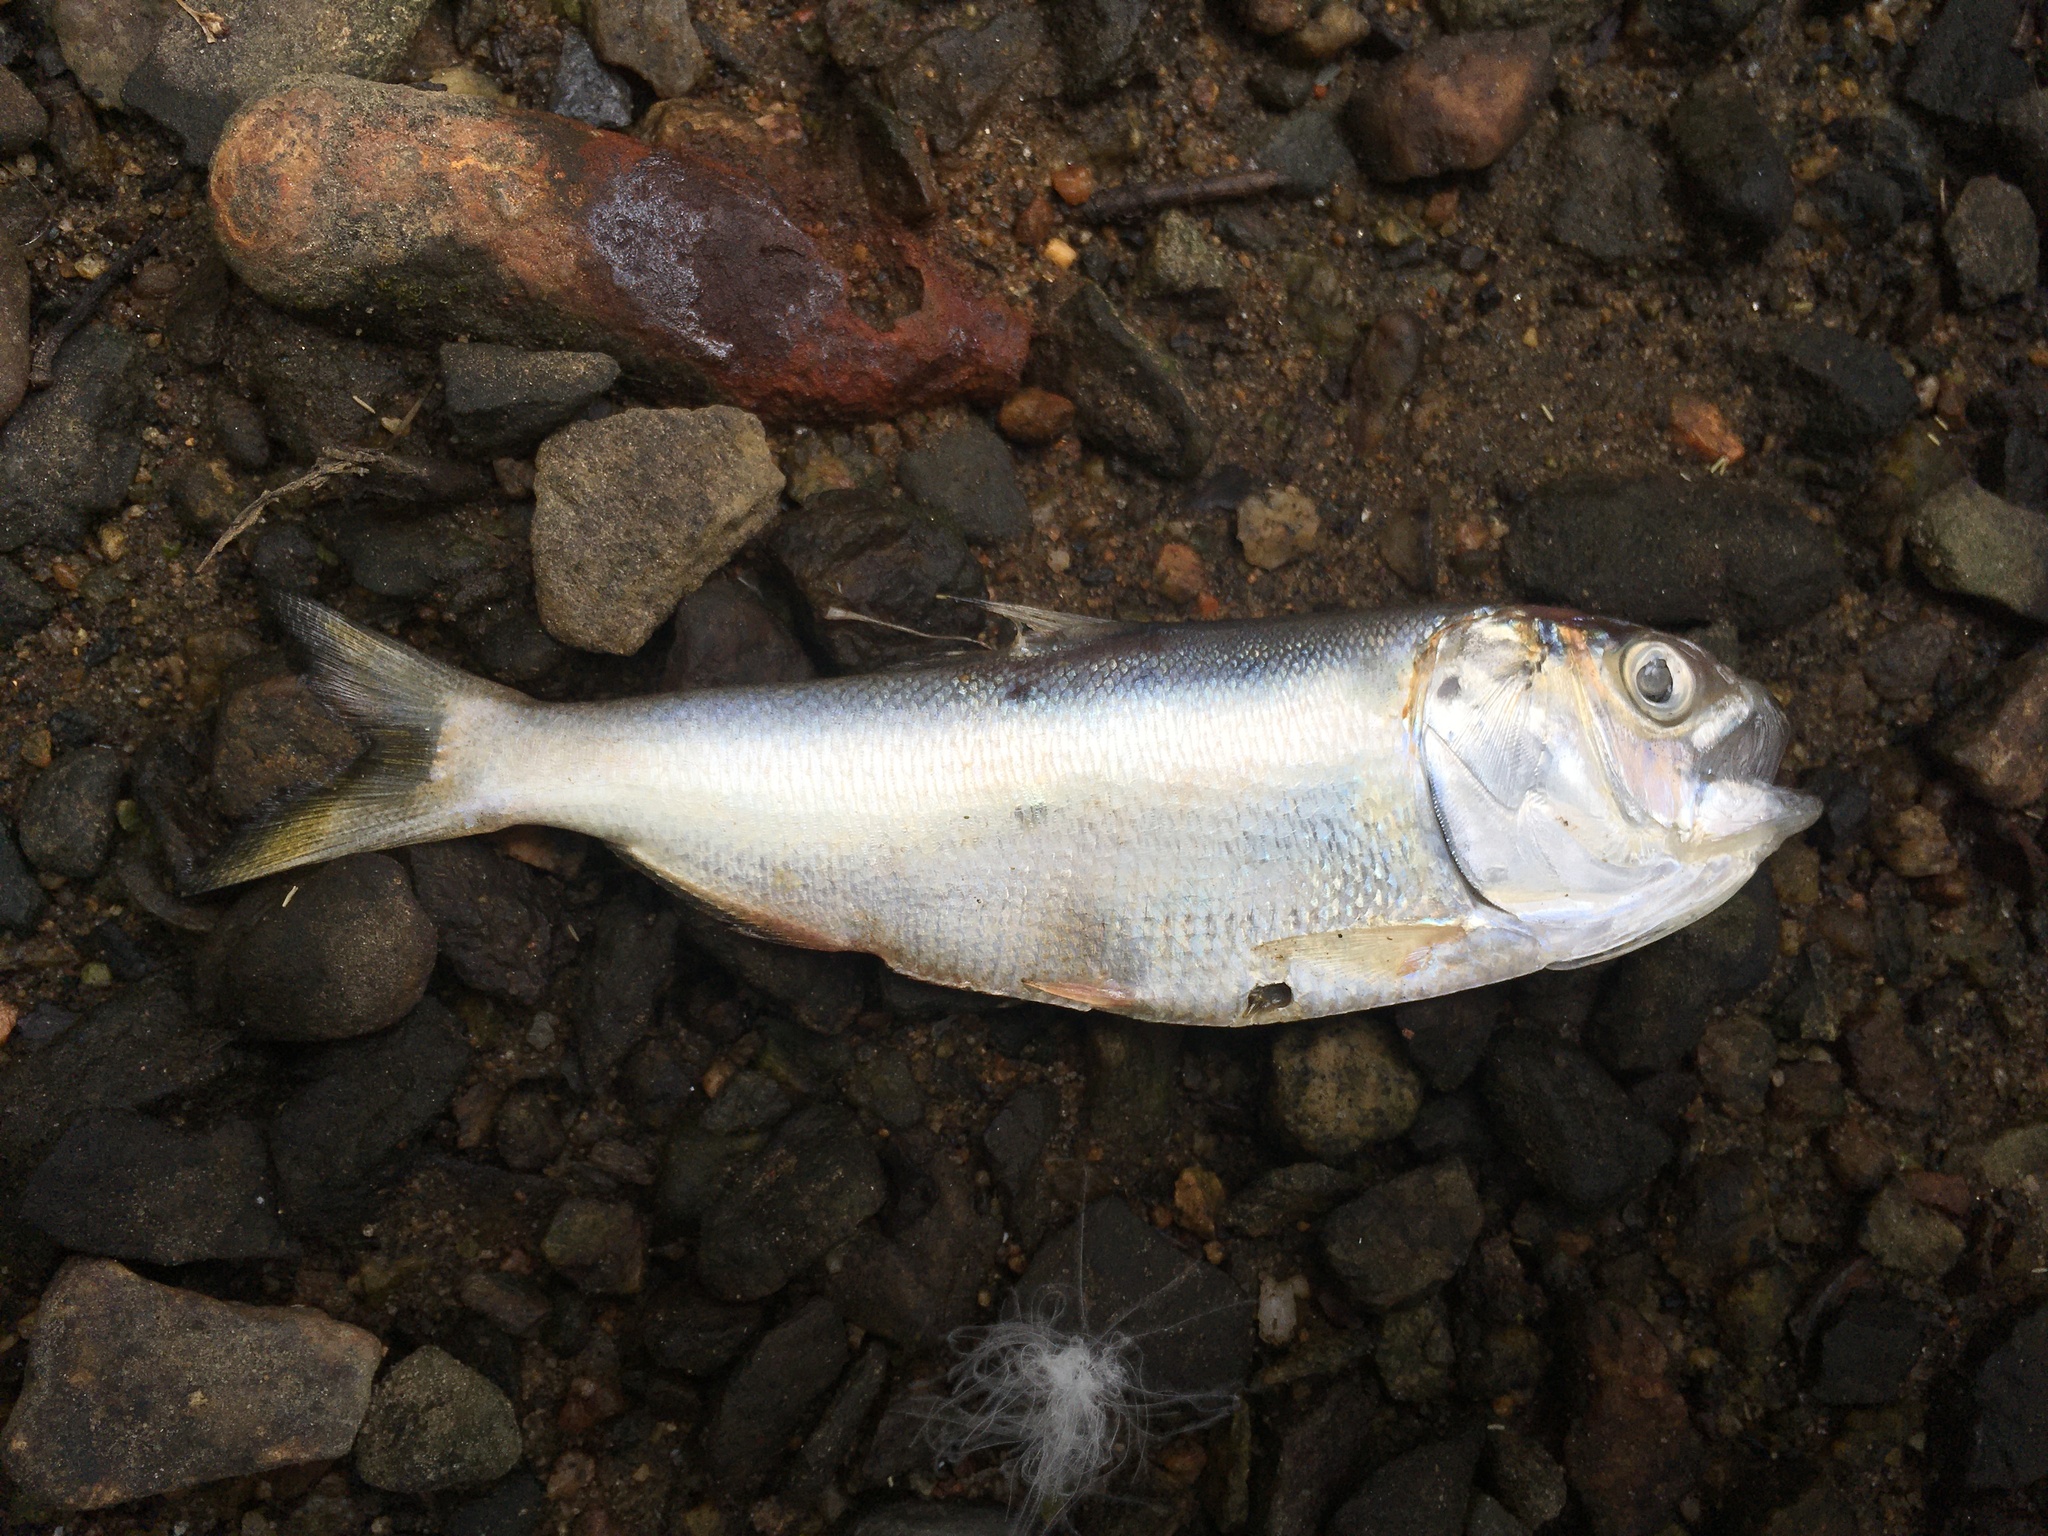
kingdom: Animalia
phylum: Chordata
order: Clupeiformes
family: Clupeidae
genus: Brevoortia
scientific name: Brevoortia tyrannus
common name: Atlantic menhaden
